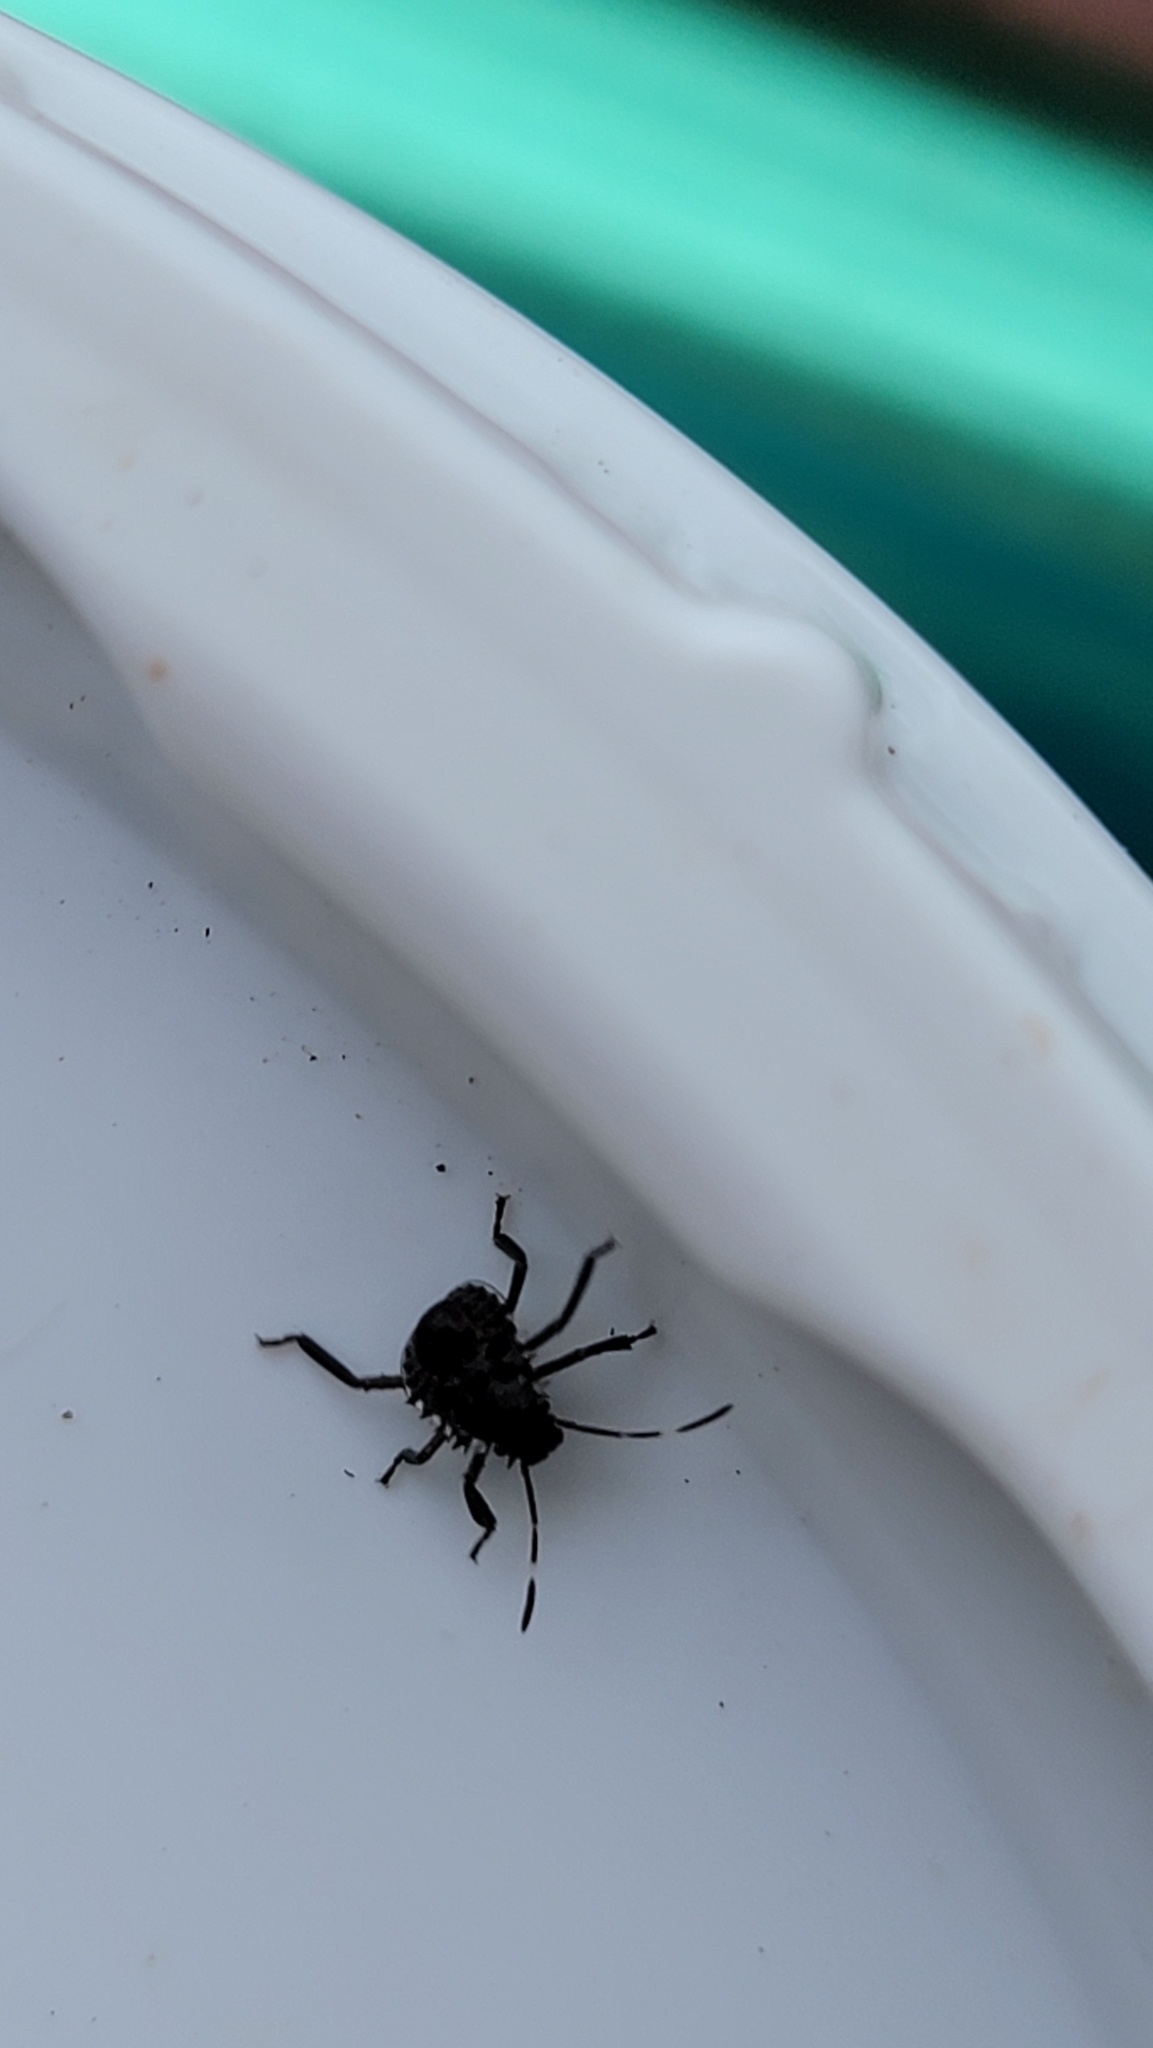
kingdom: Animalia
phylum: Arthropoda
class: Insecta
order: Hemiptera
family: Pentatomidae
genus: Halyomorpha
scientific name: Halyomorpha halys
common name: Brown marmorated stink bug
